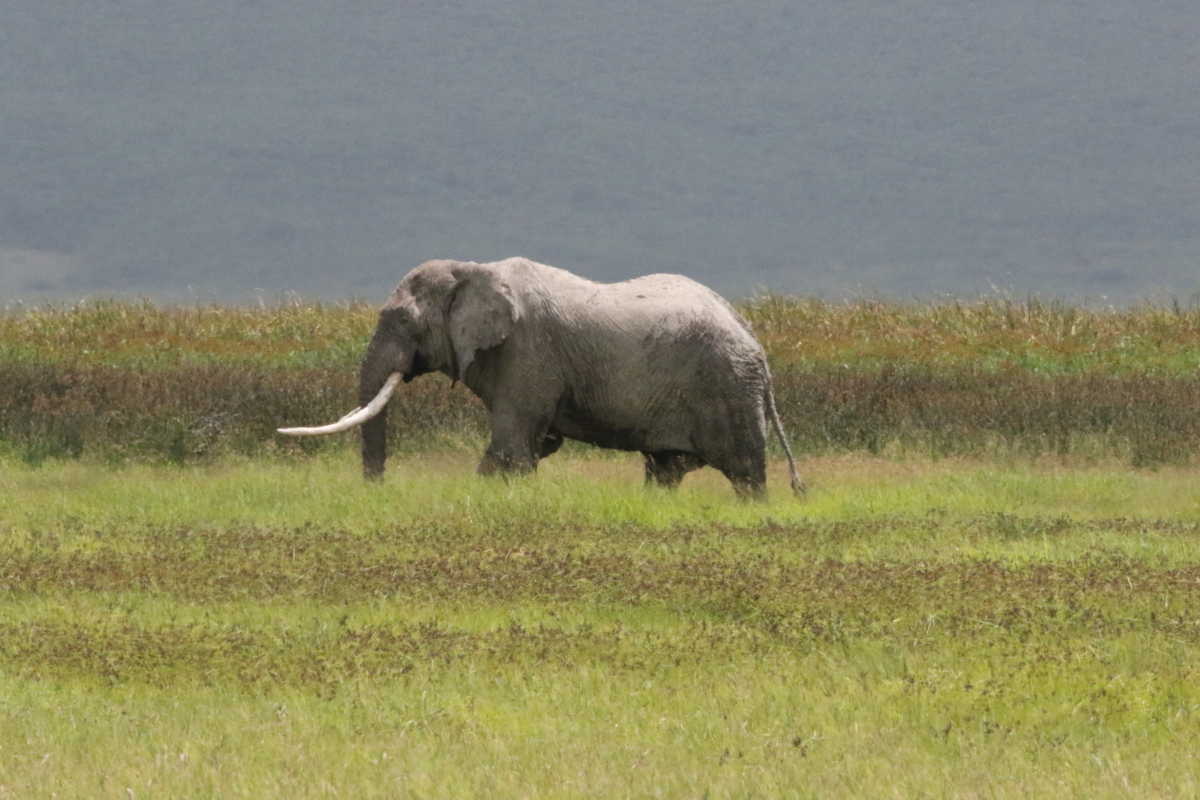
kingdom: Animalia
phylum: Chordata
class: Mammalia
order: Proboscidea
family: Elephantidae
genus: Loxodonta
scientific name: Loxodonta africana
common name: African elephant
